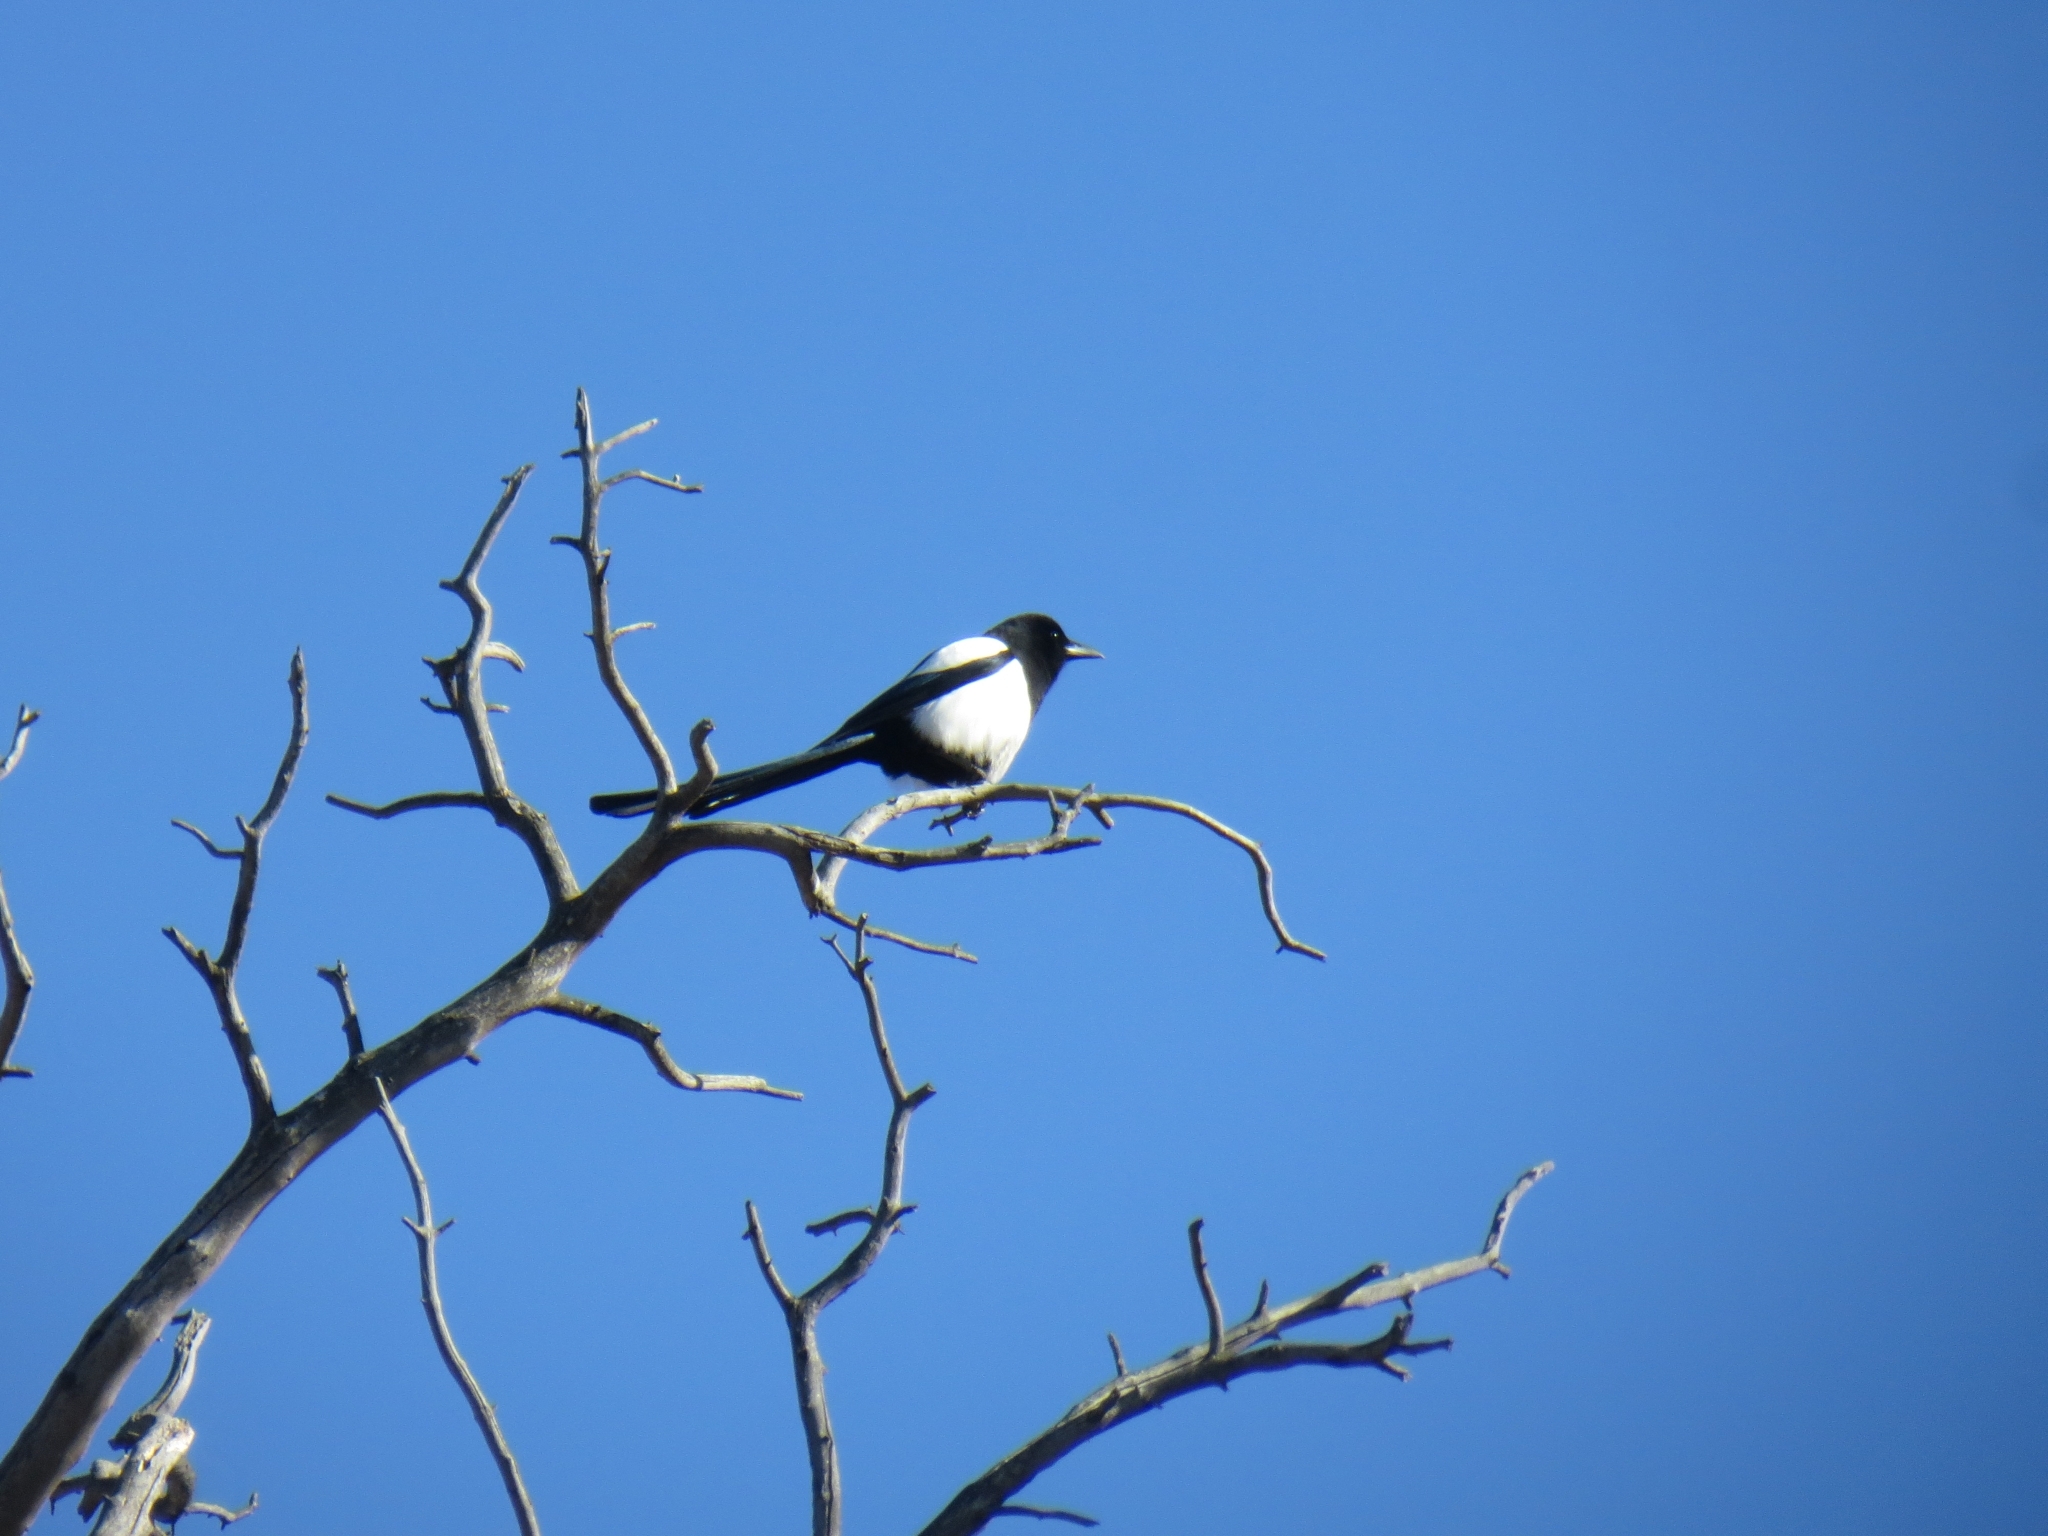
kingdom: Animalia
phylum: Chordata
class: Aves
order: Passeriformes
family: Corvidae
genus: Pica
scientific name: Pica pica
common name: Eurasian magpie
